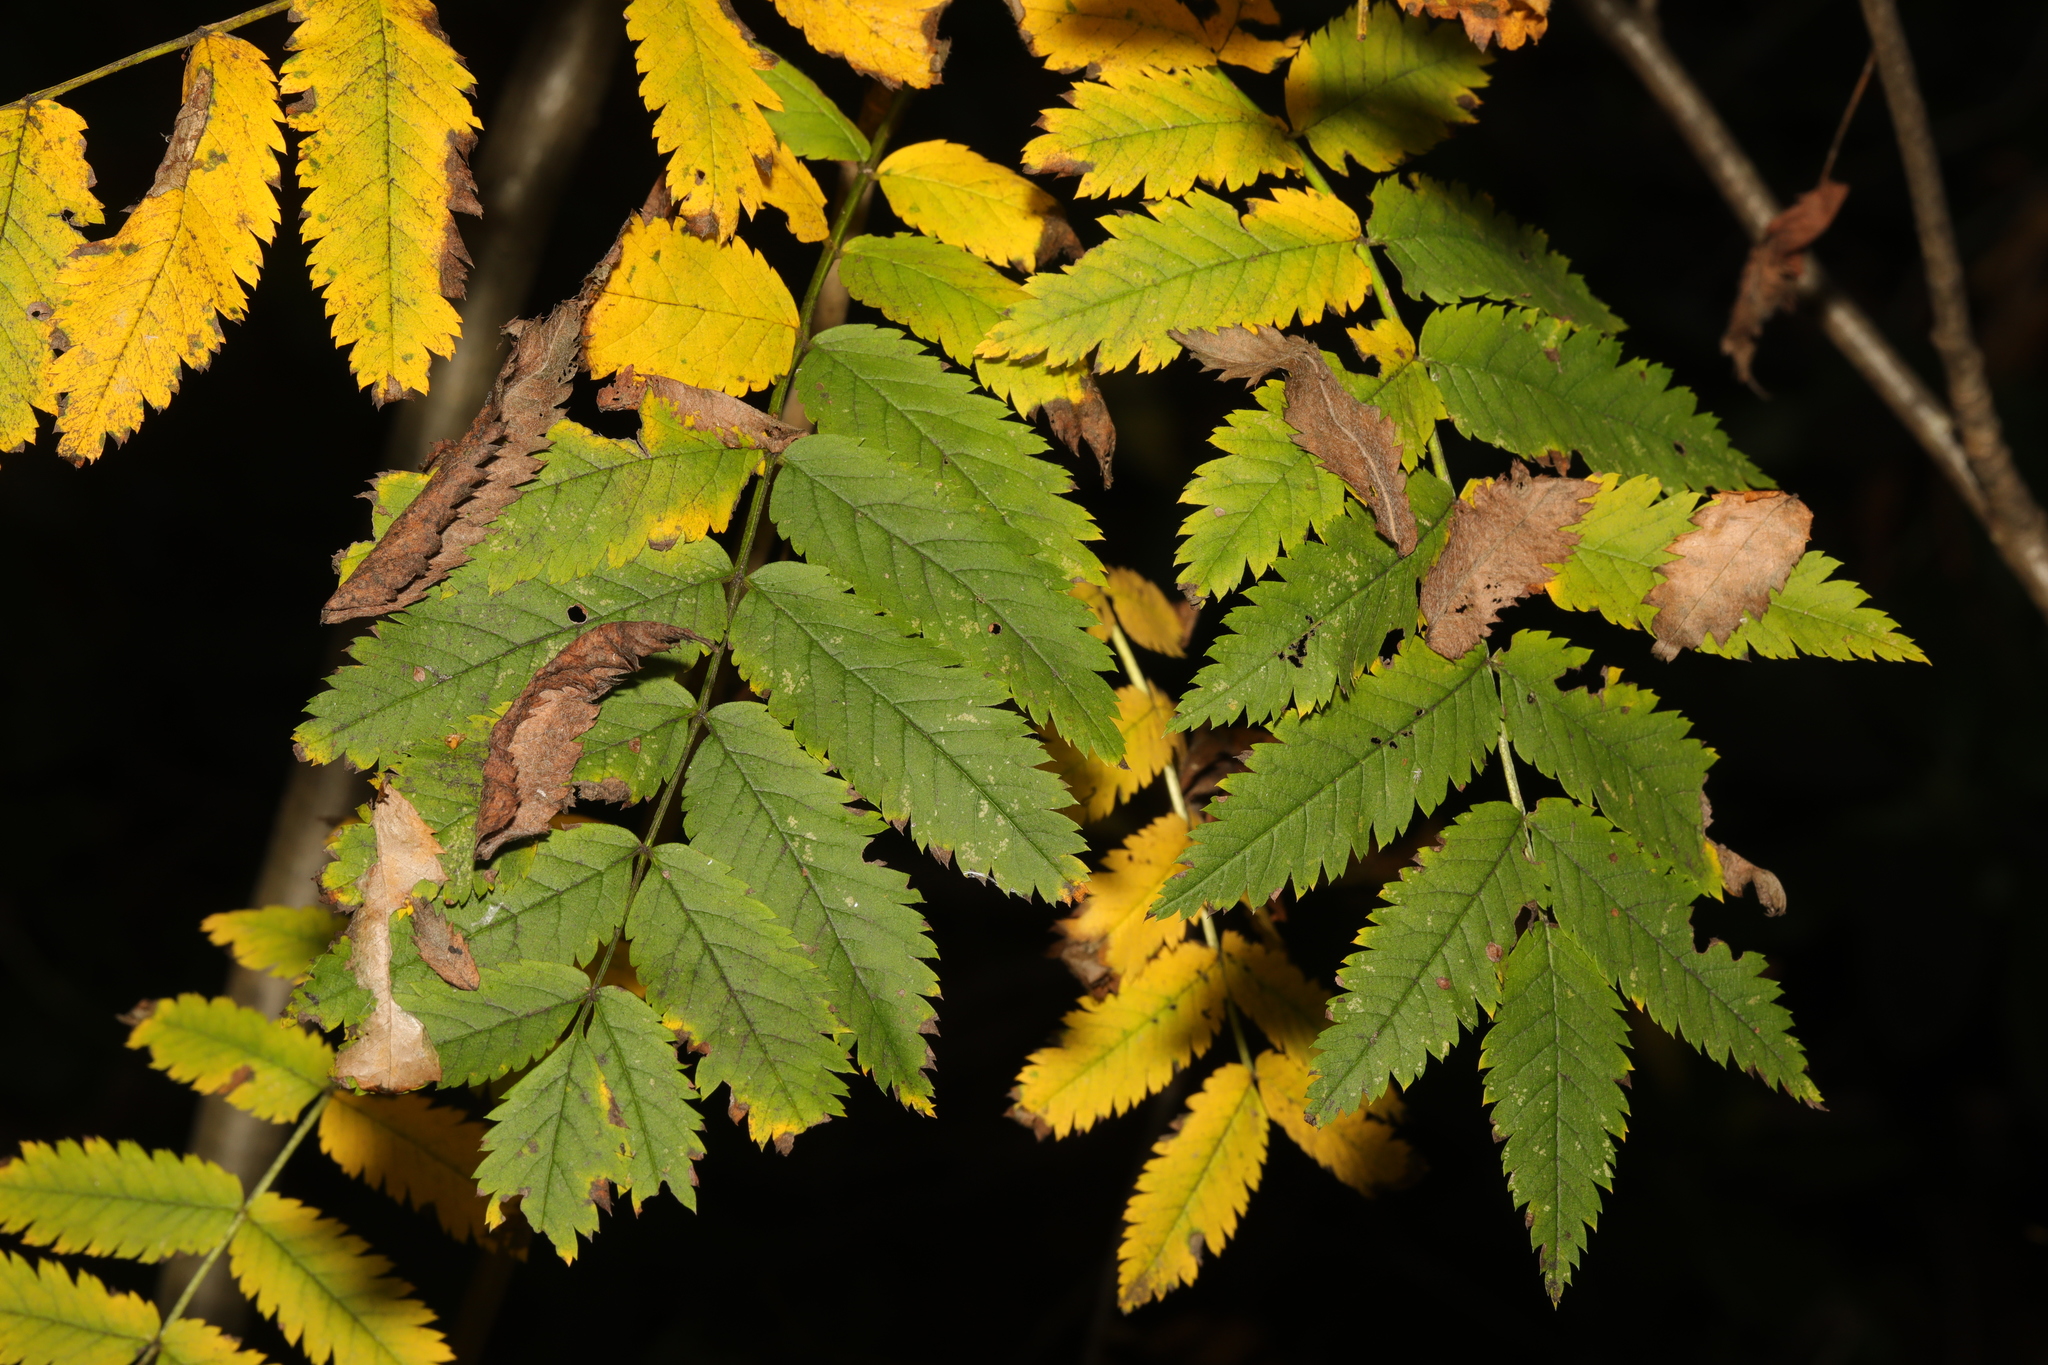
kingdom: Plantae
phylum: Tracheophyta
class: Magnoliopsida
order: Rosales
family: Rosaceae
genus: Sorbus
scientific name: Sorbus aucuparia
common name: Rowan
